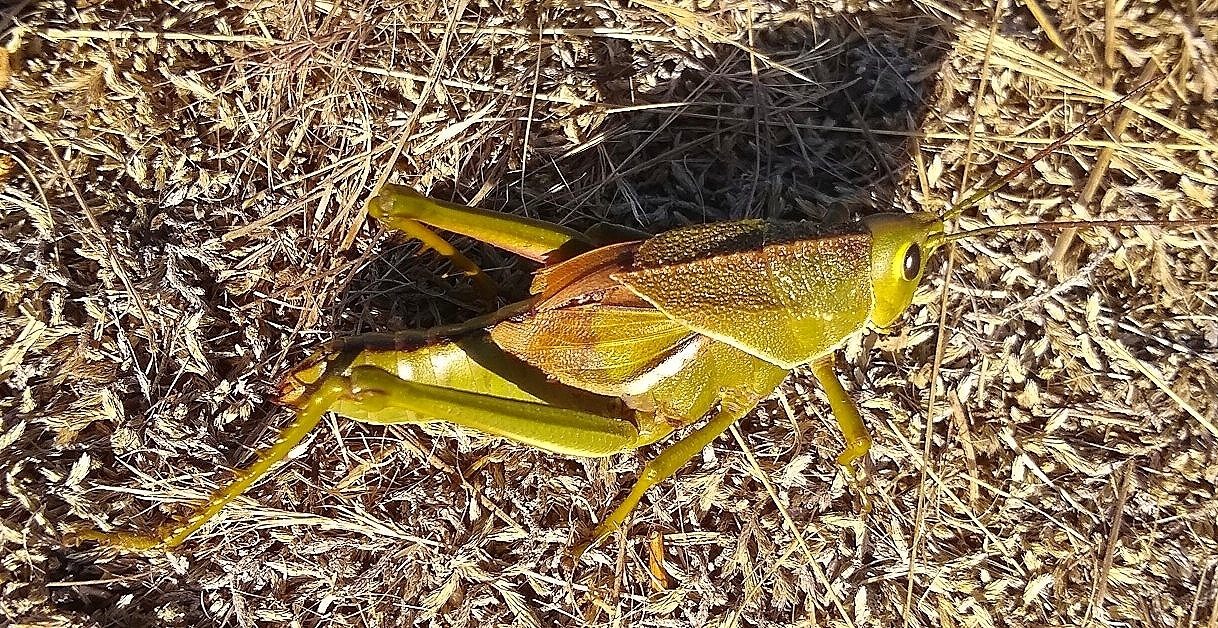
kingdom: Animalia
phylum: Arthropoda
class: Insecta
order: Orthoptera
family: Romaleidae
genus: Staleochlora
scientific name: Staleochlora viridicata
